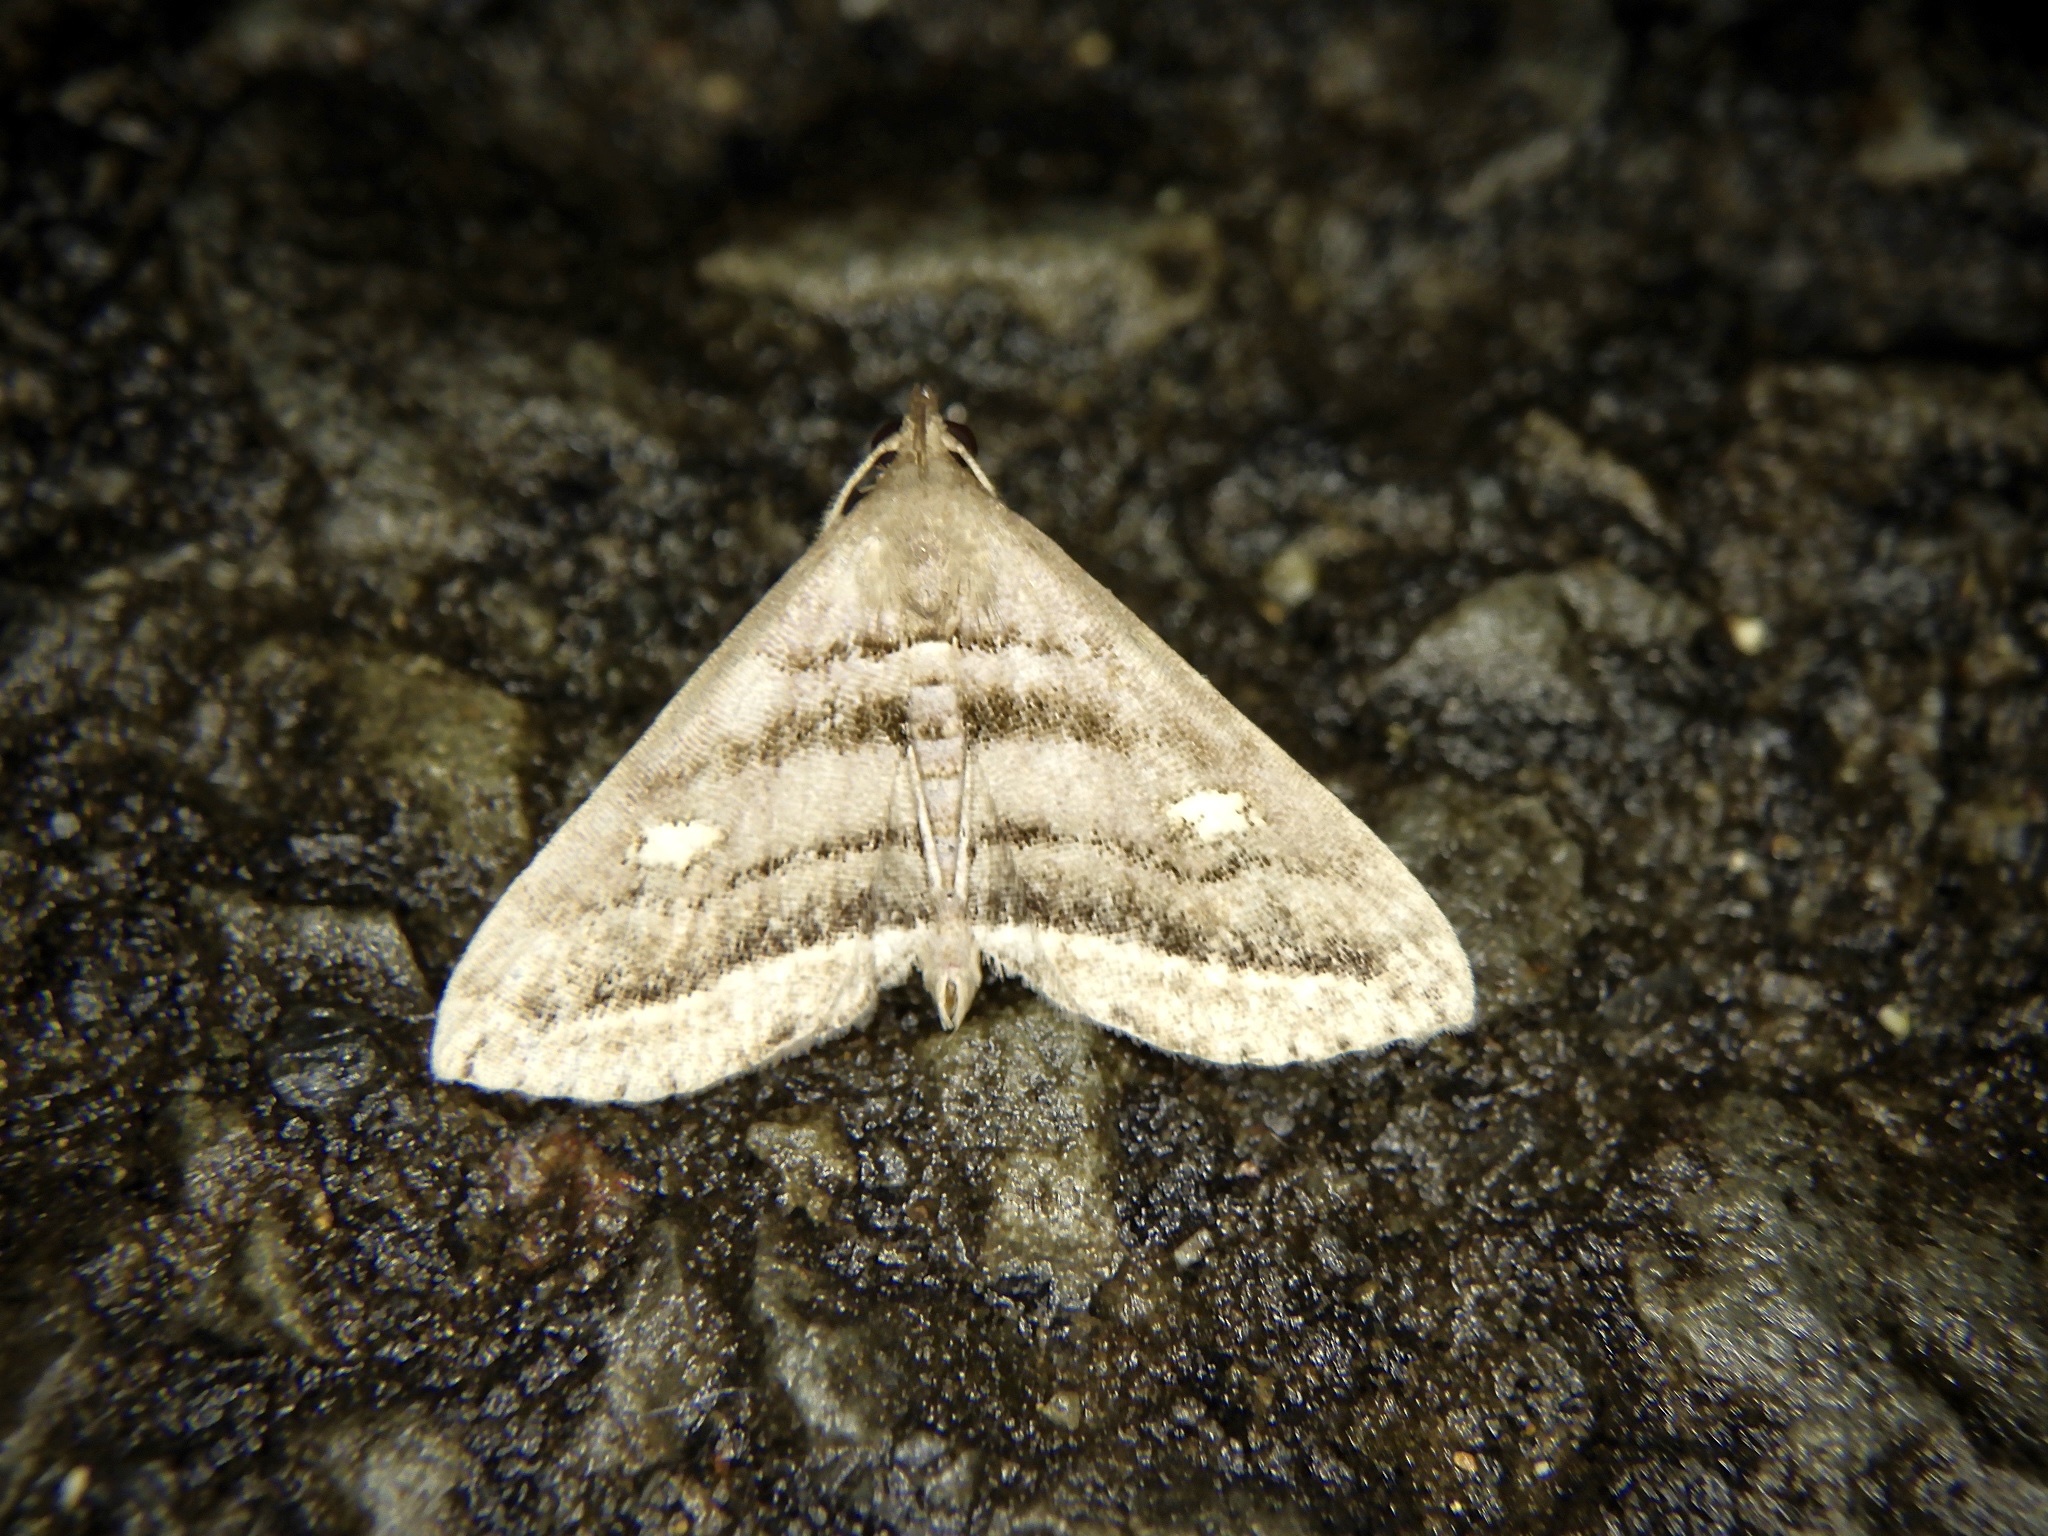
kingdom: Animalia
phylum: Arthropoda
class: Insecta
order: Lepidoptera
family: Erebidae
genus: Paracolax
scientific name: Paracolax pryeri
